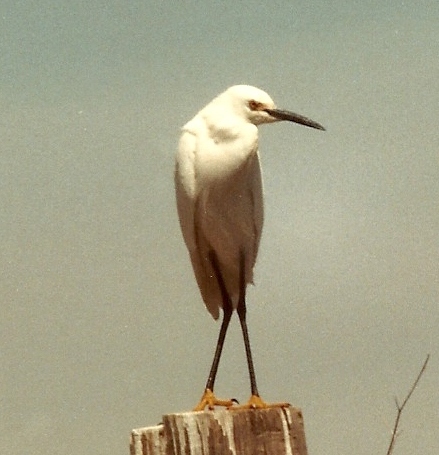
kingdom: Animalia
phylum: Chordata
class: Aves
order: Pelecaniformes
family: Ardeidae
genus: Egretta
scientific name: Egretta thula
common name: Snowy egret
